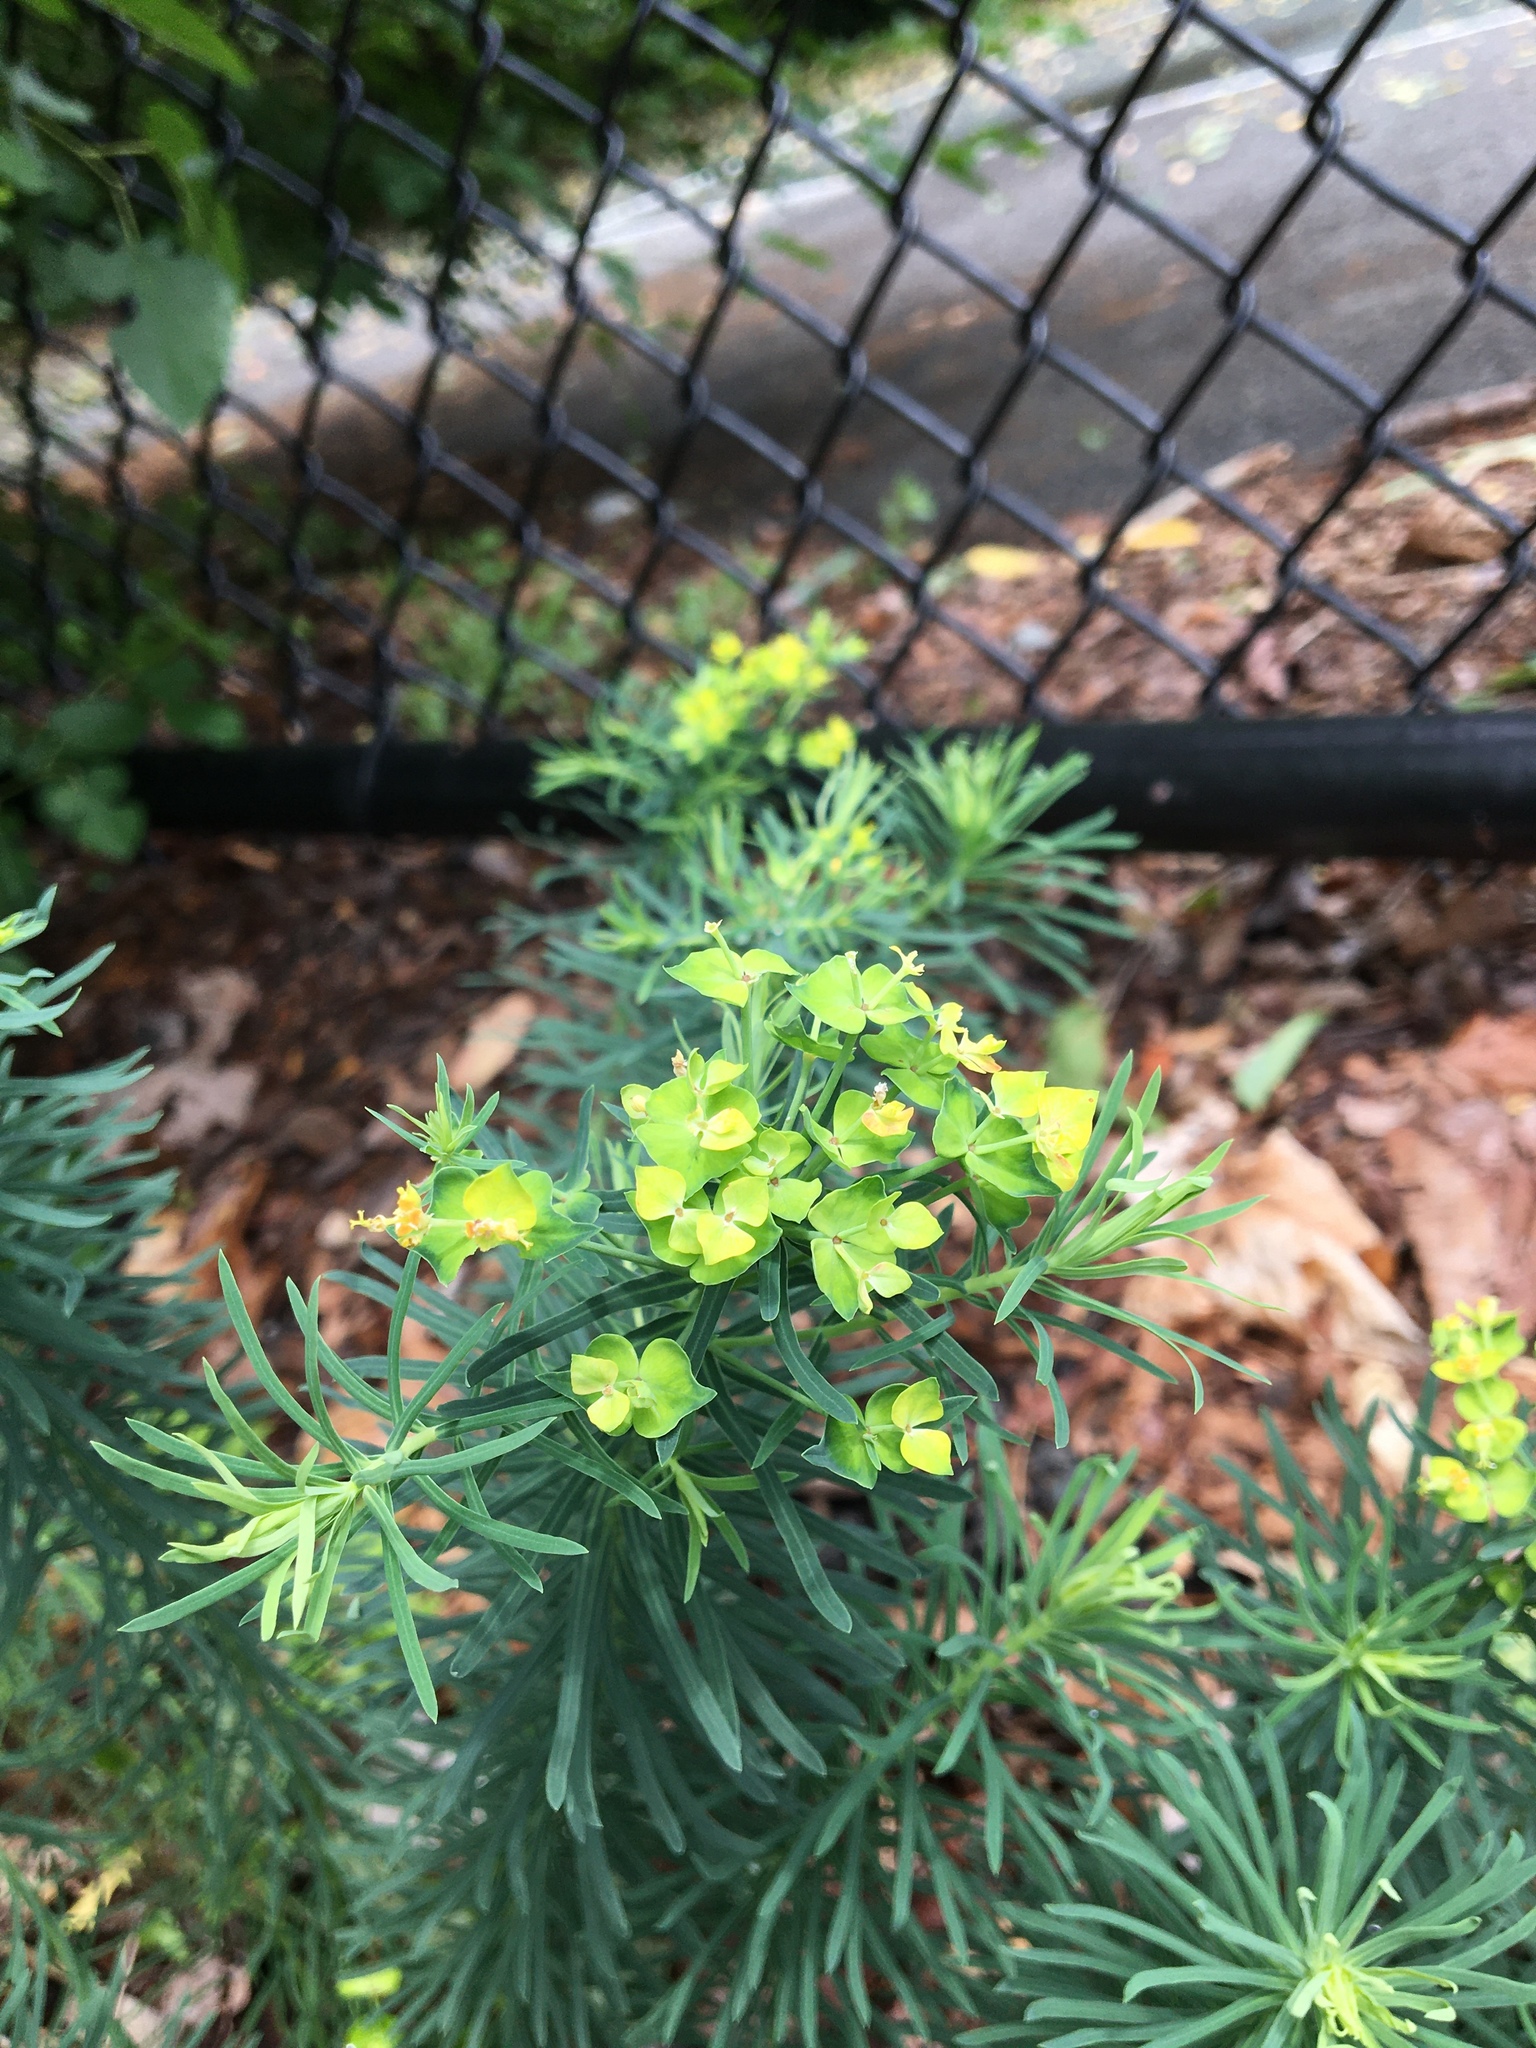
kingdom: Plantae
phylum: Tracheophyta
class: Magnoliopsida
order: Malpighiales
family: Euphorbiaceae
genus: Euphorbia
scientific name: Euphorbia cyparissias
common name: Cypress spurge
